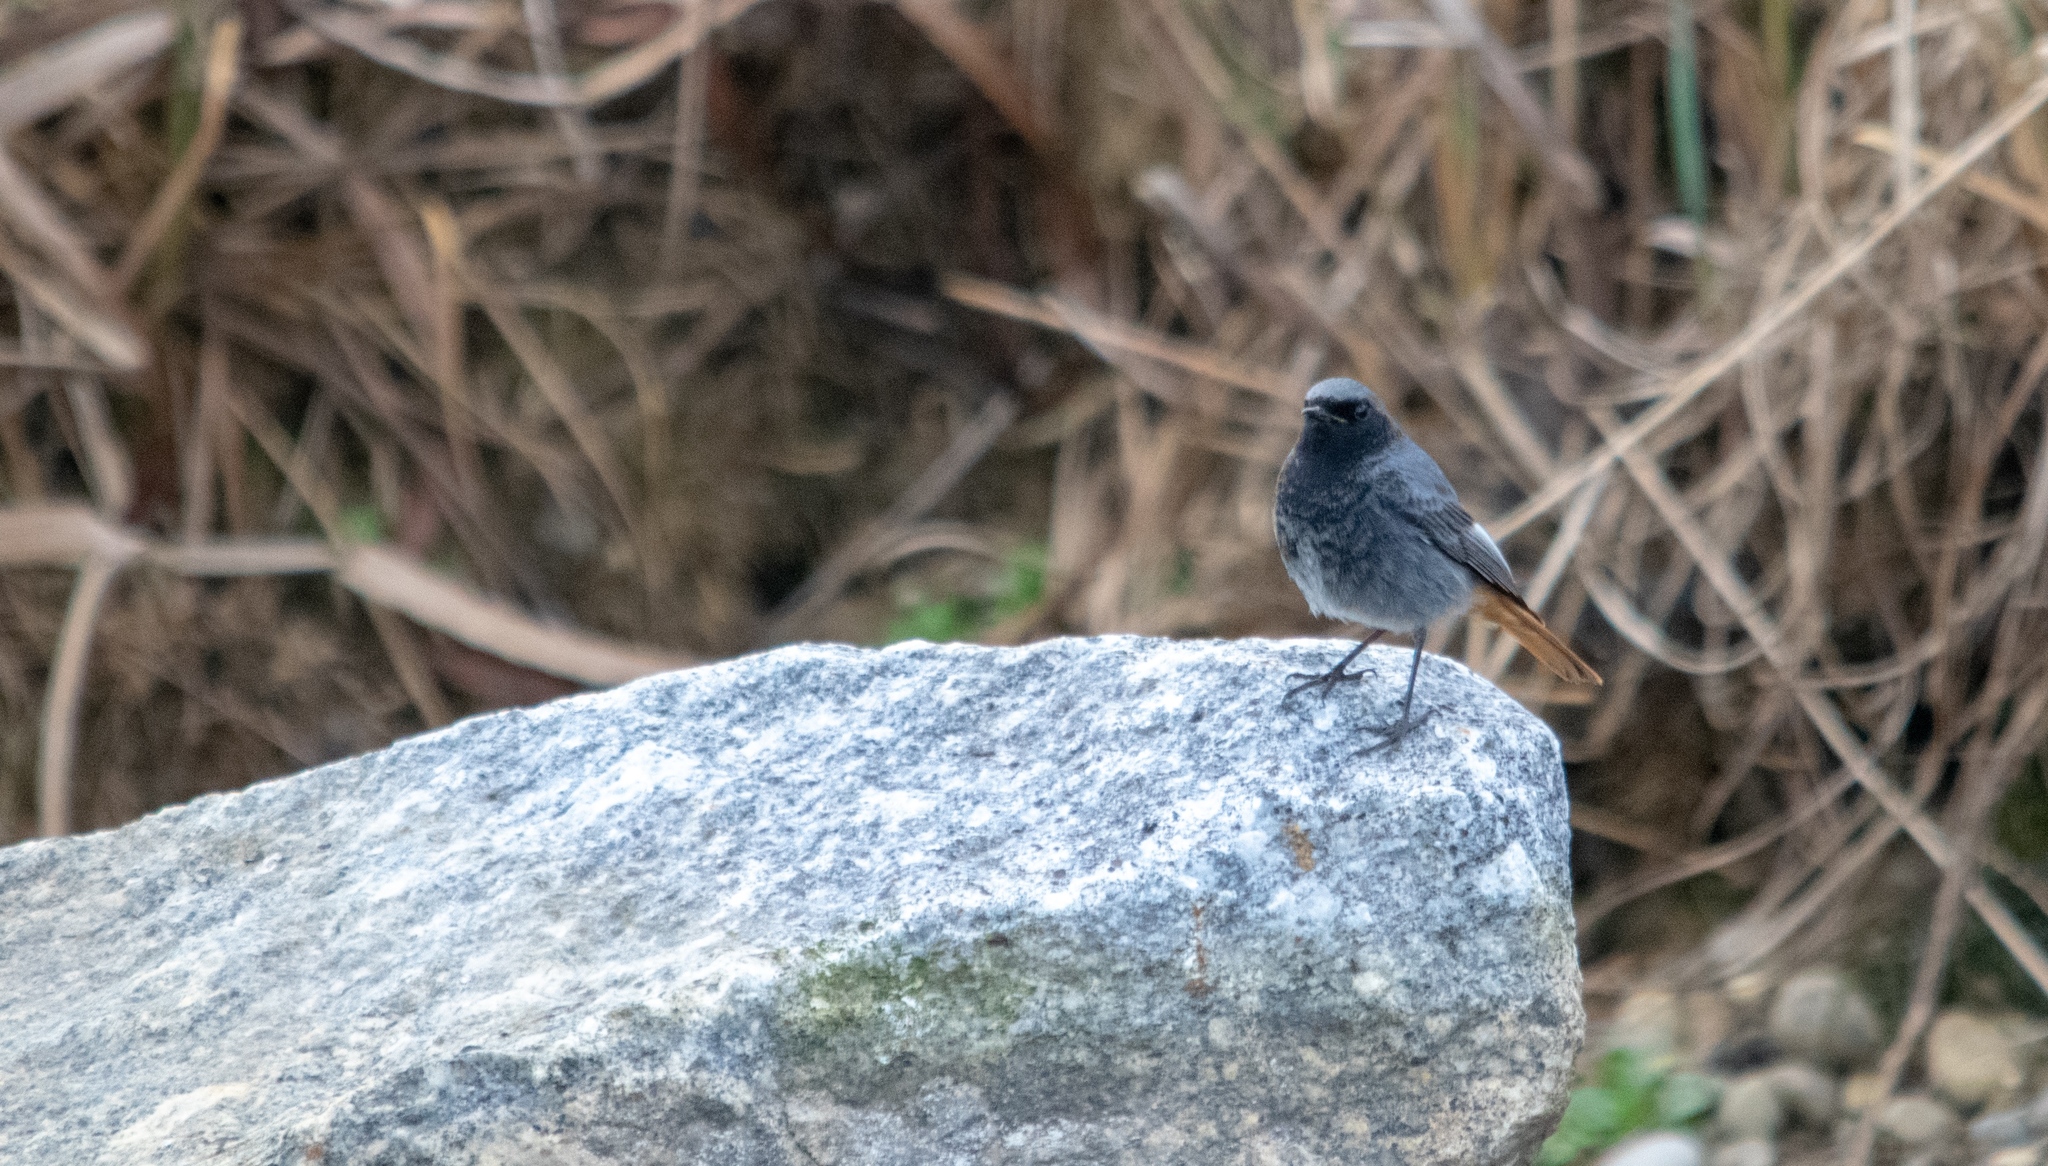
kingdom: Animalia
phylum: Chordata
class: Aves
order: Passeriformes
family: Muscicapidae
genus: Phoenicurus
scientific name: Phoenicurus ochruros
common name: Black redstart
